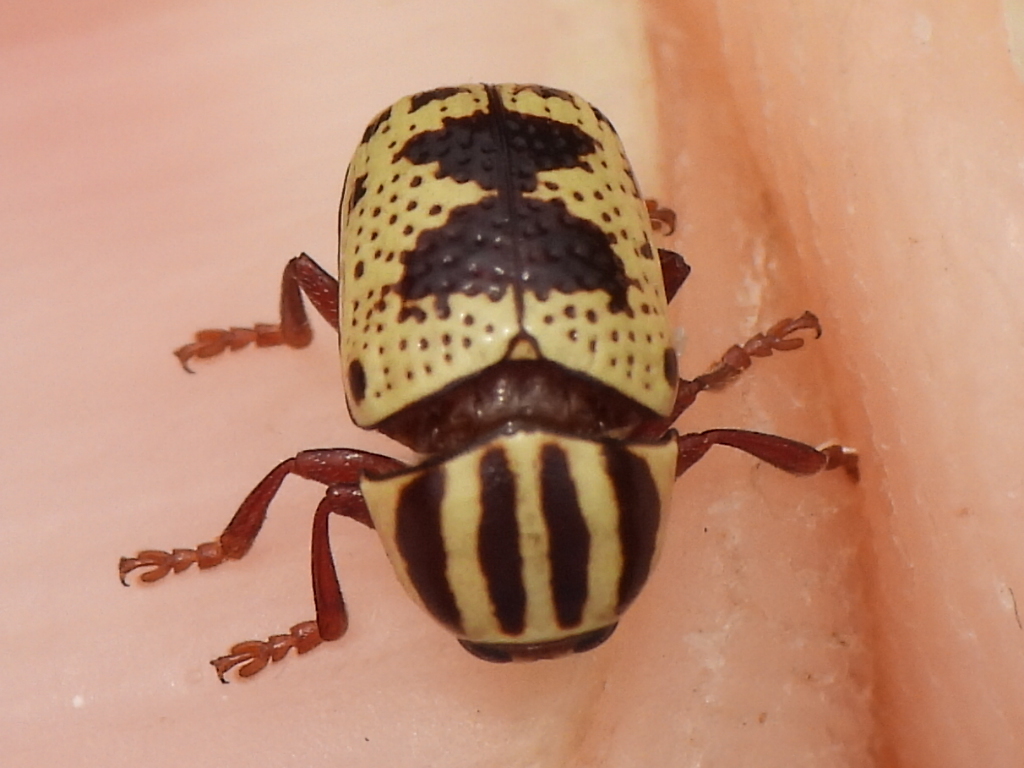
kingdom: Animalia
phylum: Arthropoda
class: Insecta
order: Coleoptera
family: Chrysomelidae
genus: Cryptocephalus
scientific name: Cryptocephalus leucomelas
